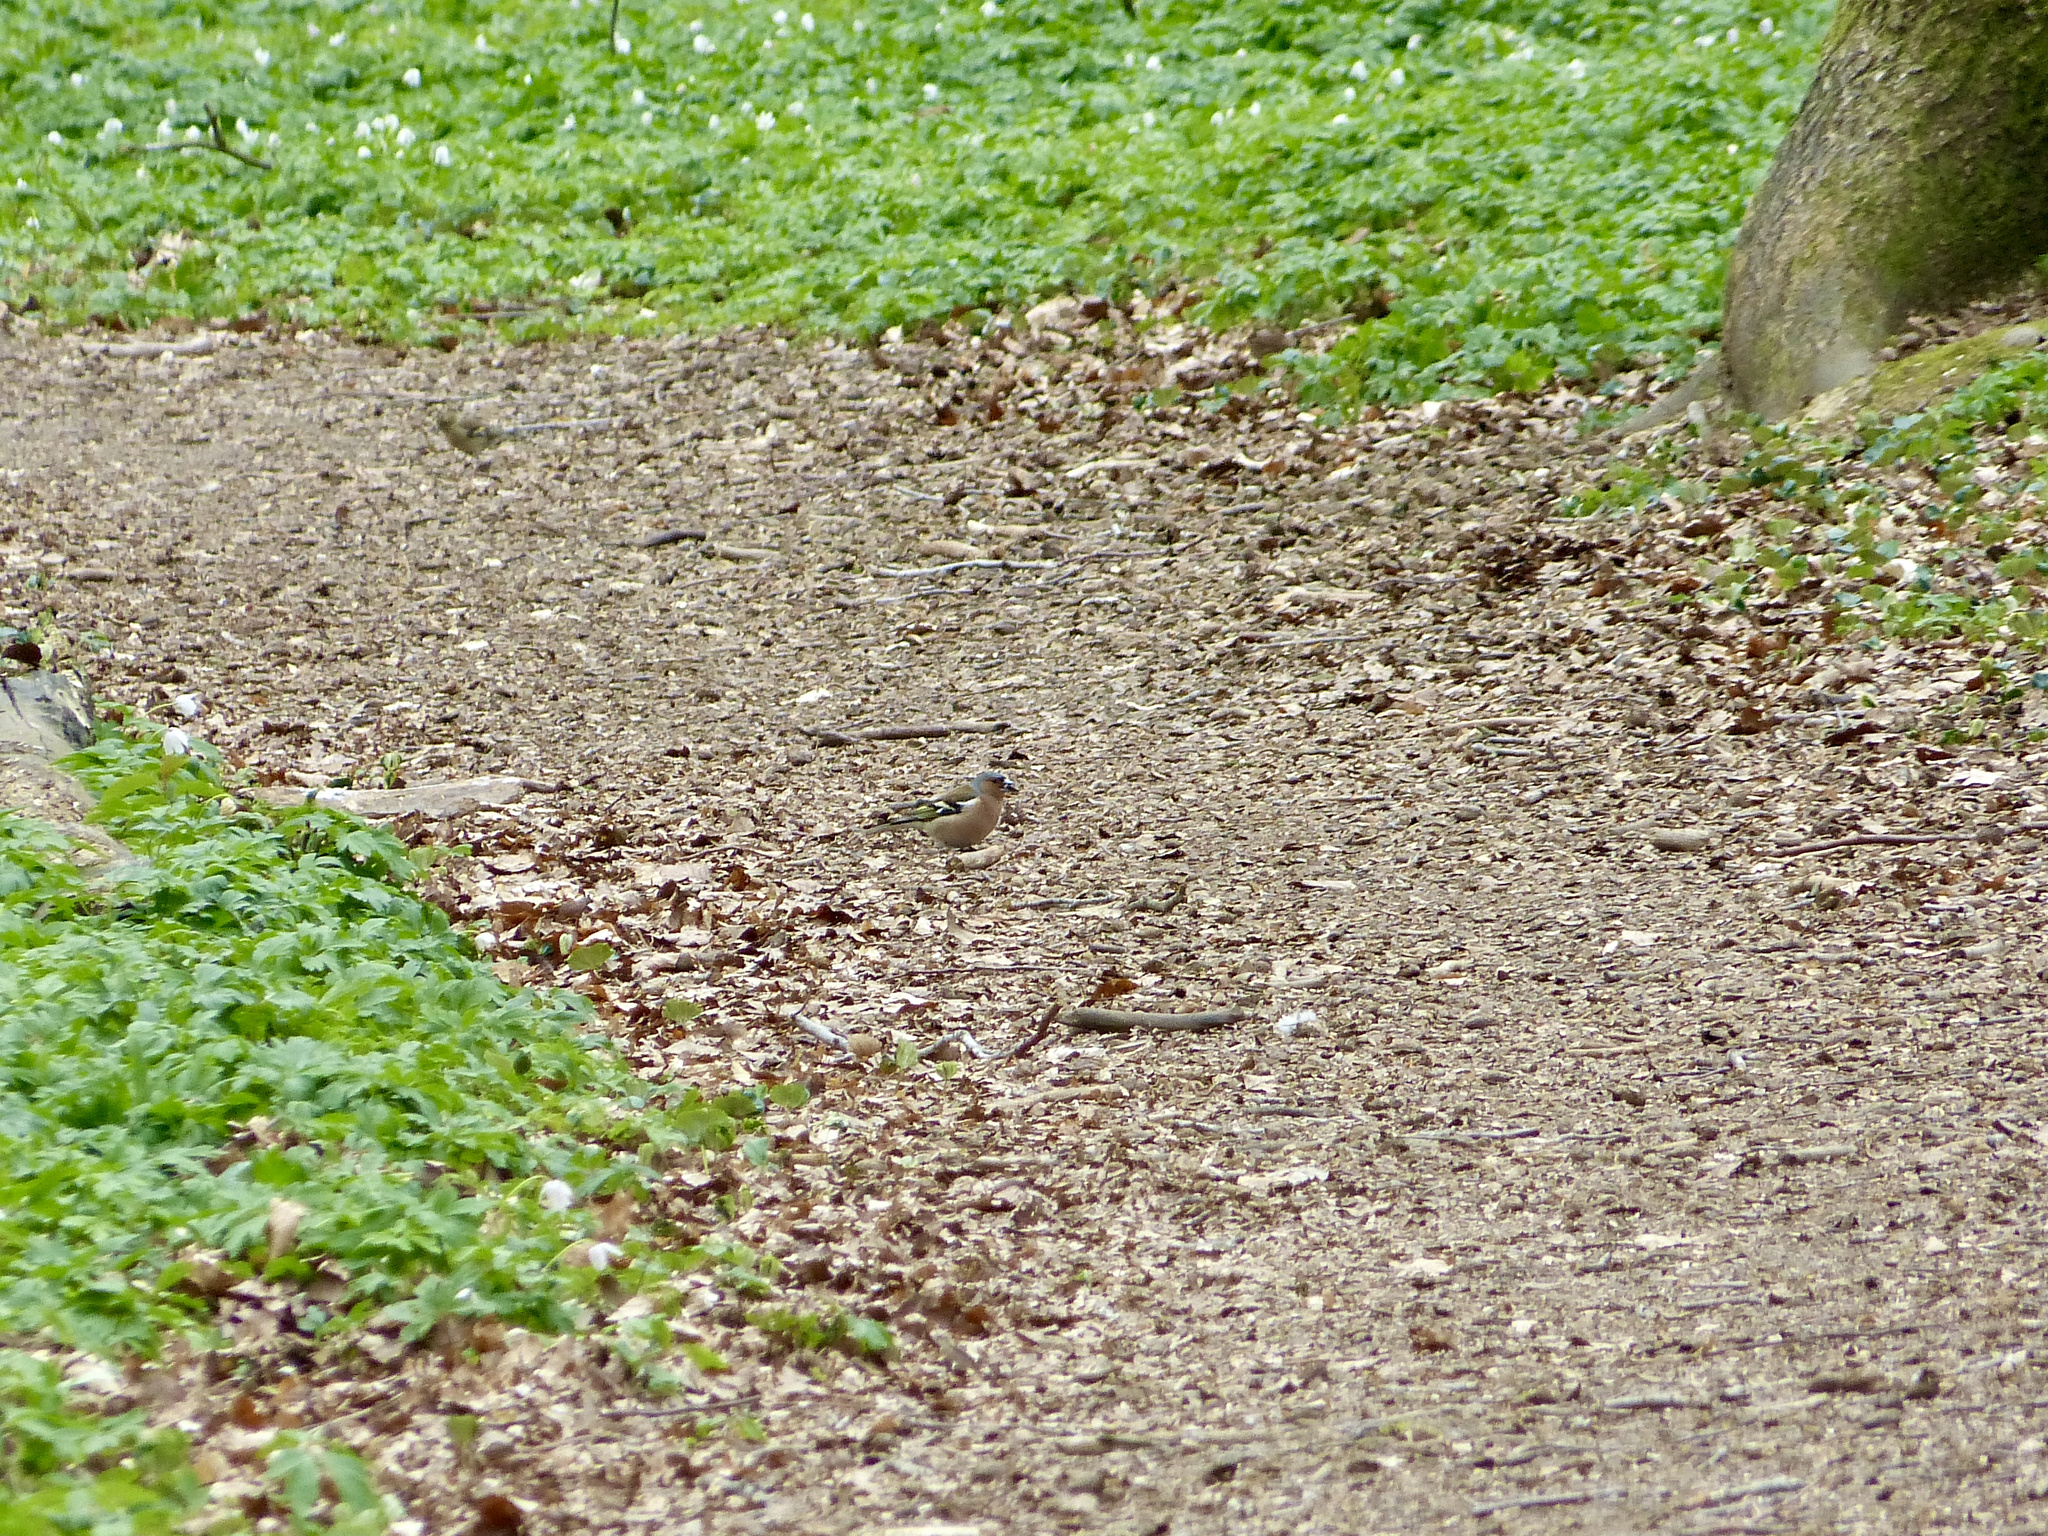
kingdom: Animalia
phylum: Chordata
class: Aves
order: Passeriformes
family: Fringillidae
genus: Fringilla
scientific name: Fringilla coelebs
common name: Common chaffinch
